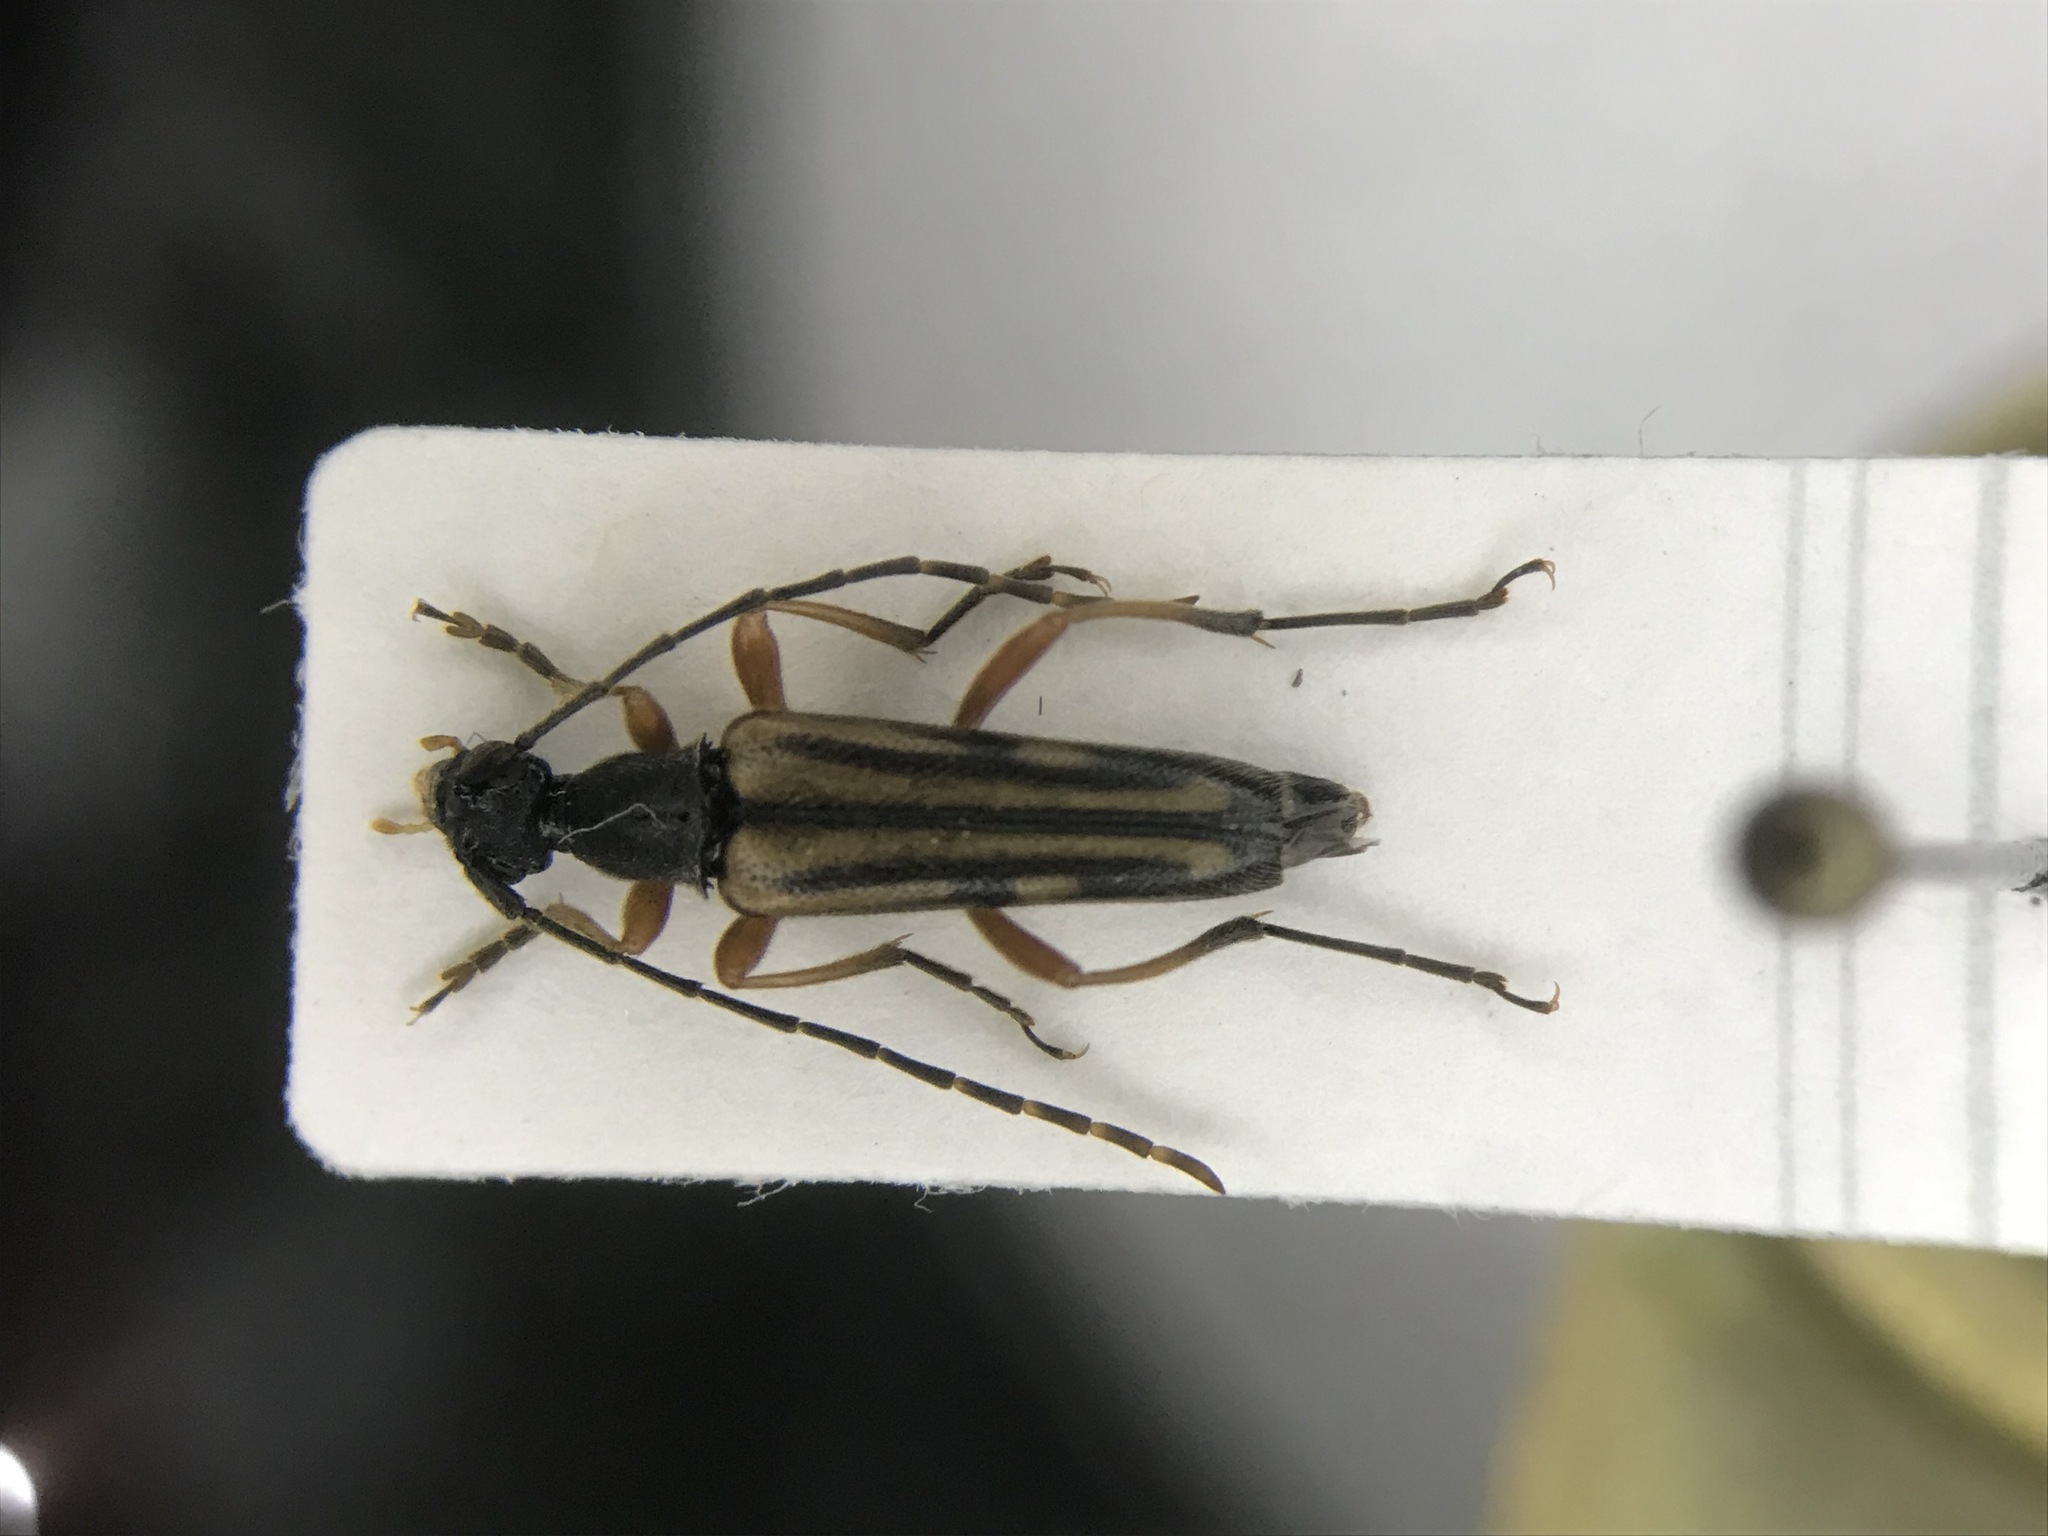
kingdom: Animalia
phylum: Arthropoda
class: Insecta
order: Coleoptera
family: Cerambycidae
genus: Analeptura
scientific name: Analeptura lineola
